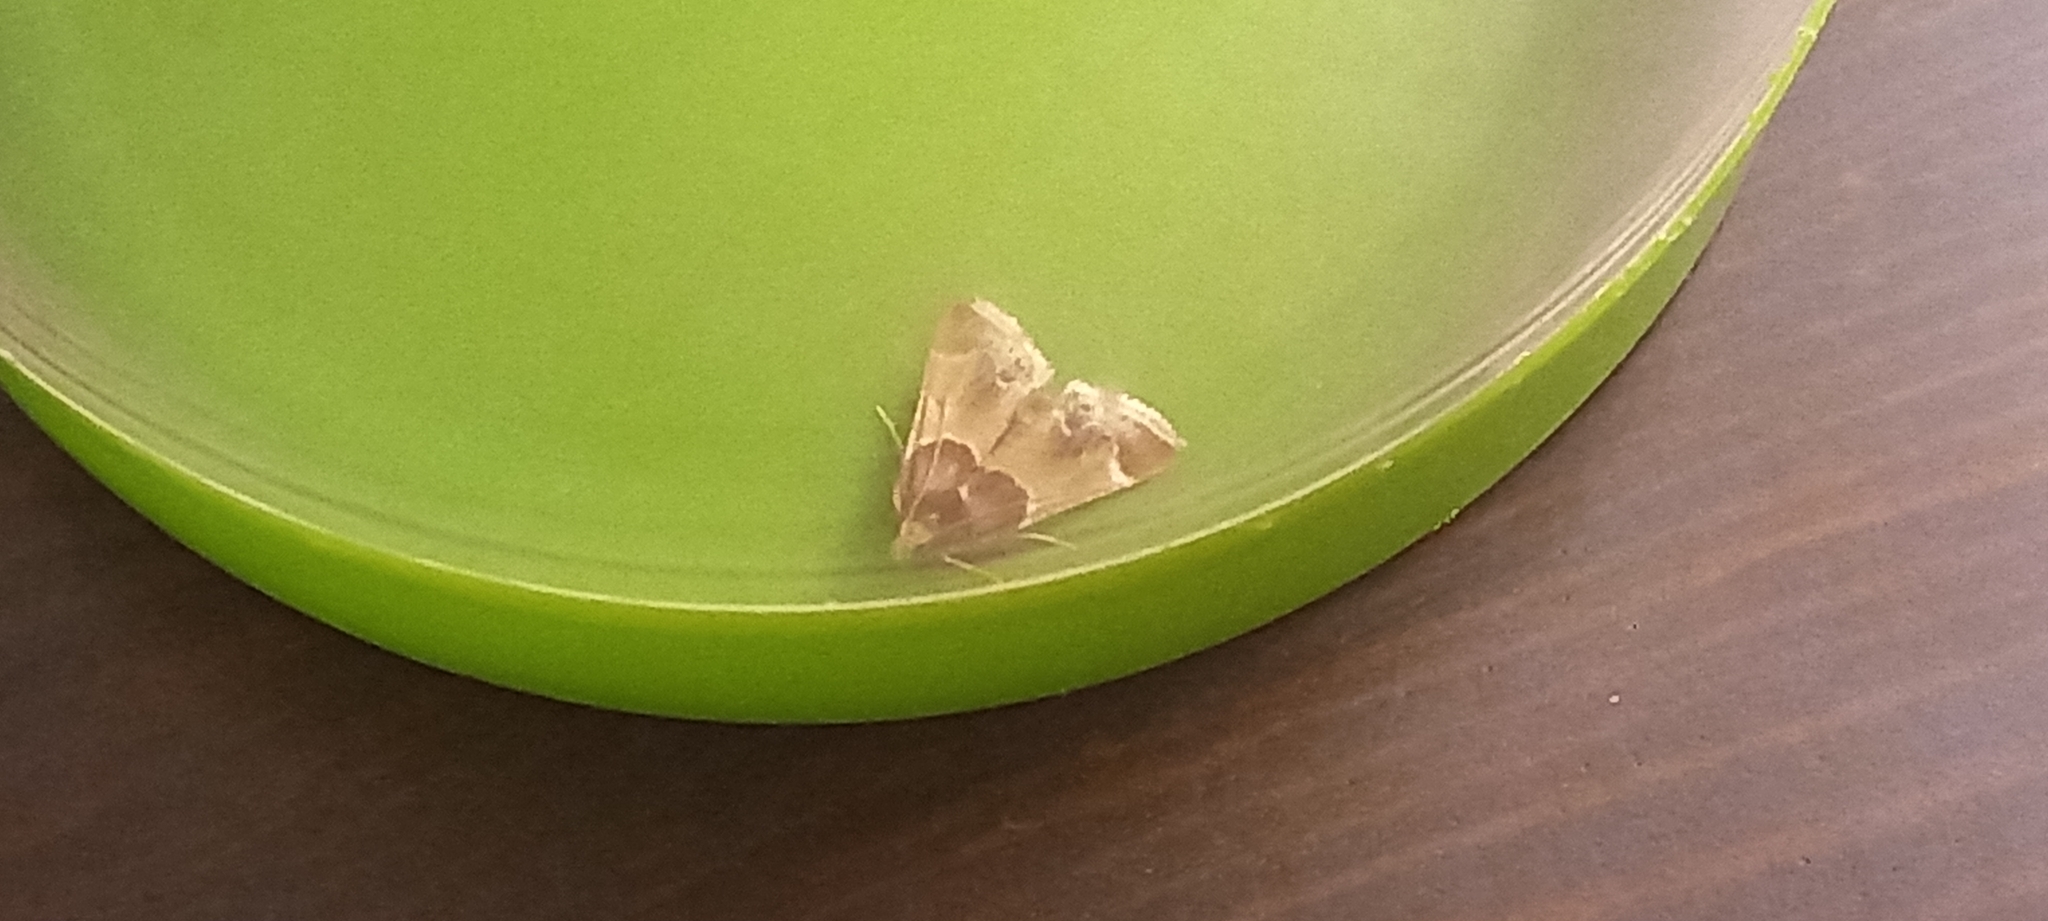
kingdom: Animalia
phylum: Arthropoda
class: Insecta
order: Lepidoptera
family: Pyralidae
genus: Pyralis
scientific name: Pyralis farinalis
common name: Meal moth
